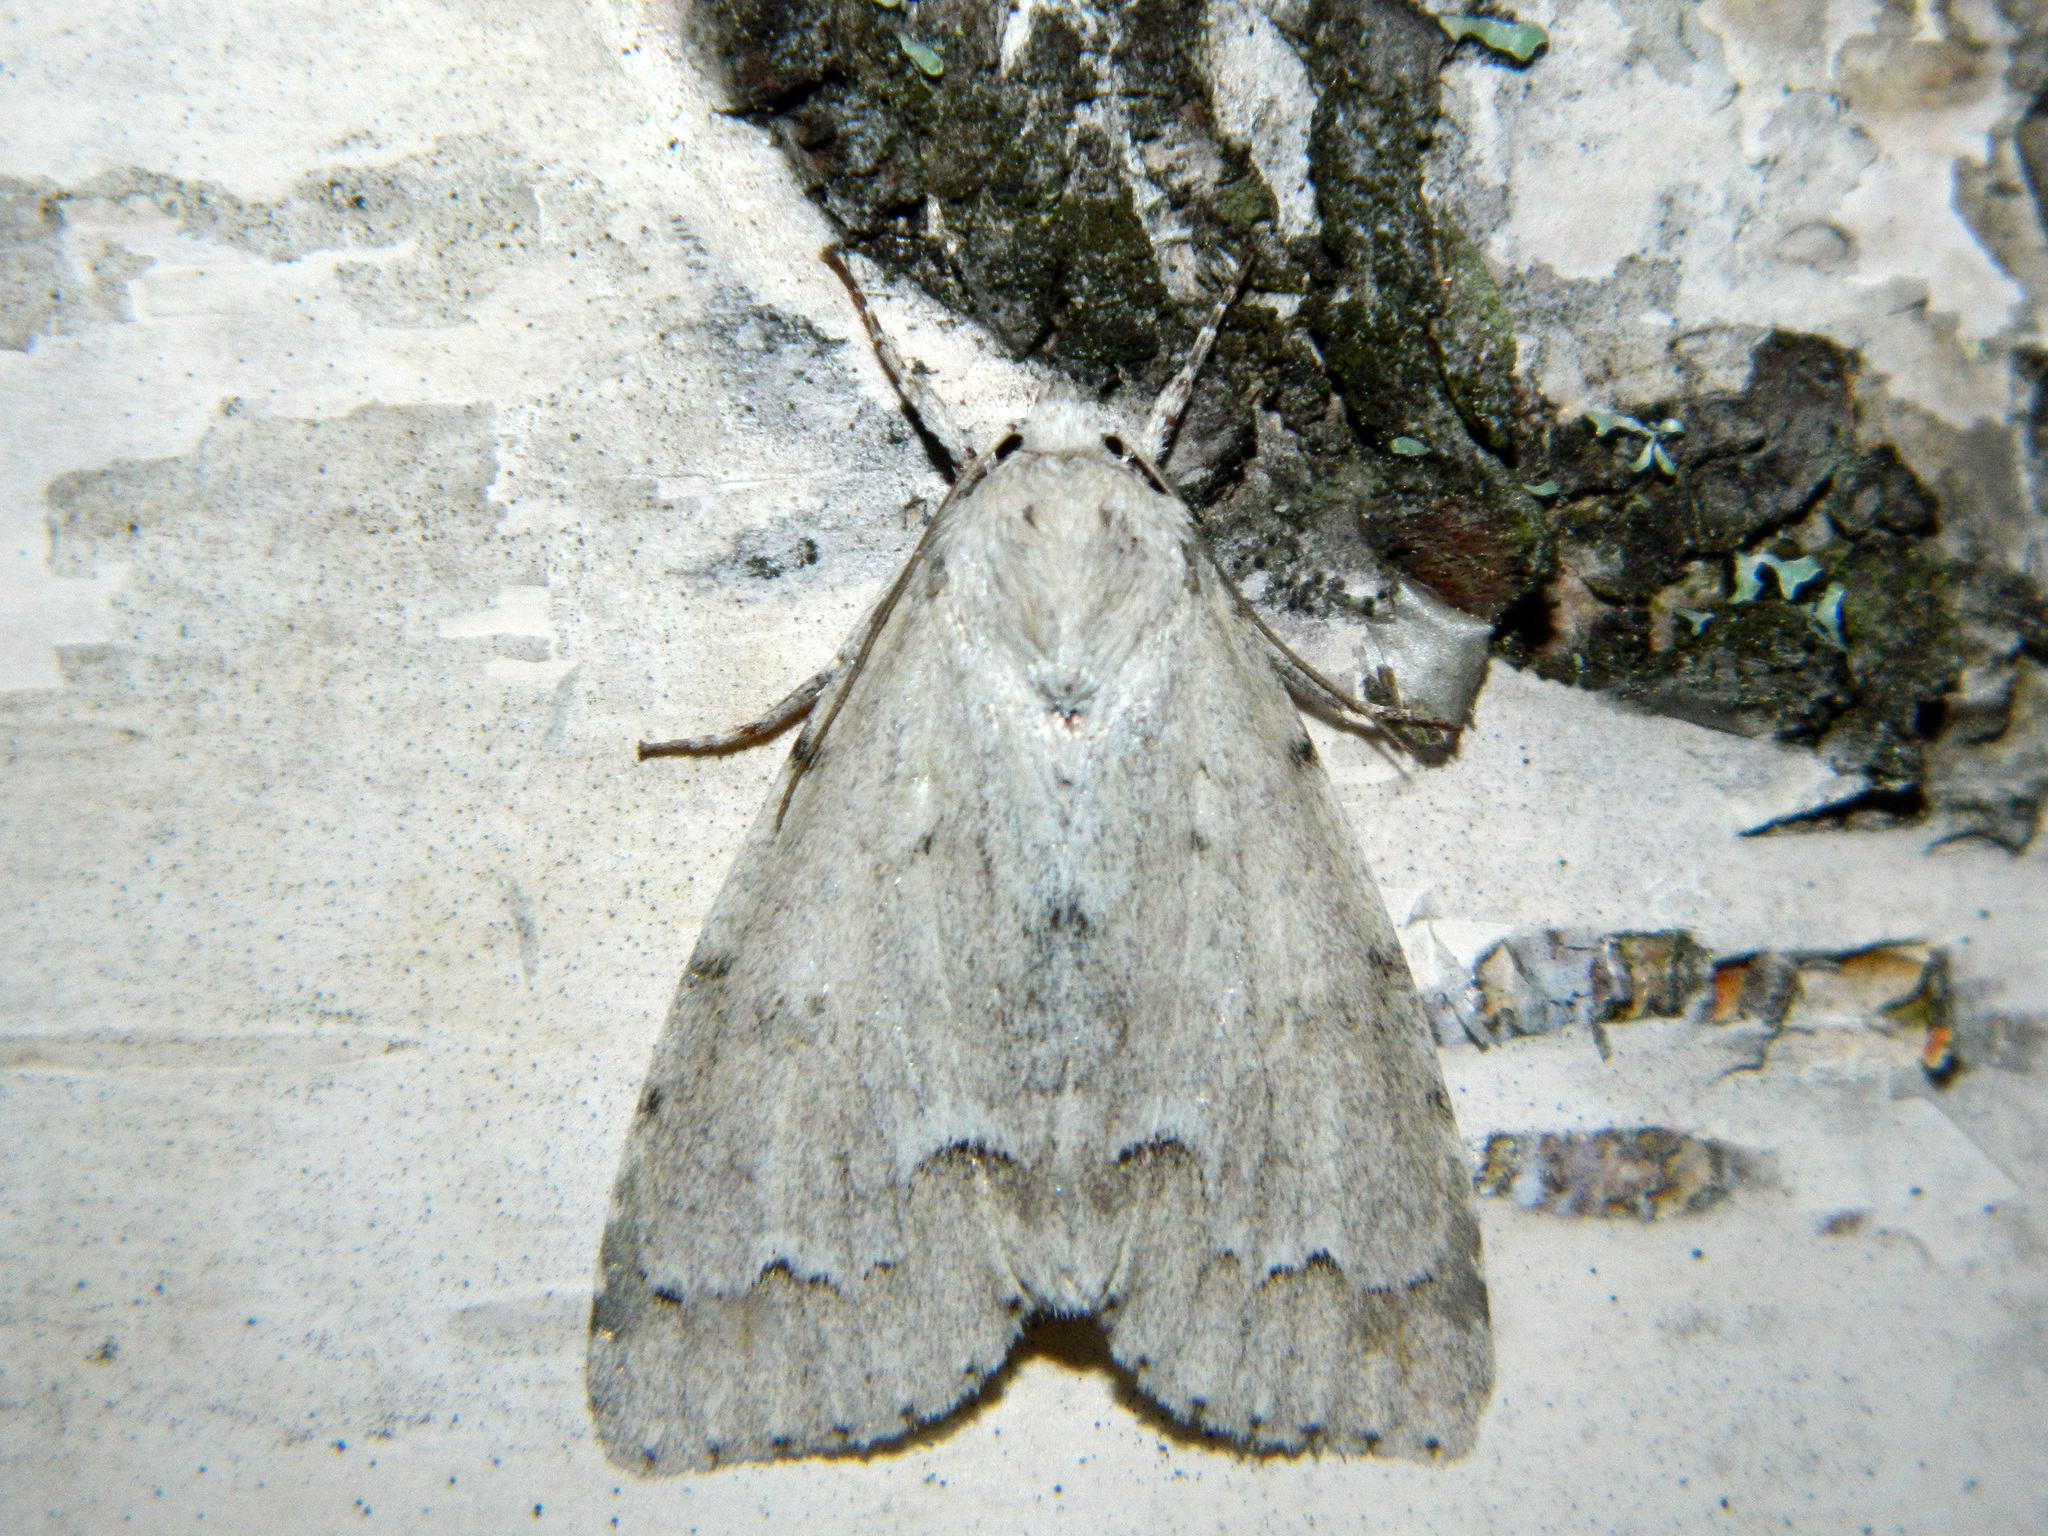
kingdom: Animalia
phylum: Arthropoda
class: Insecta
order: Lepidoptera
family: Noctuidae
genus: Acronicta
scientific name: Acronicta innotata
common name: Unmarked dagger
